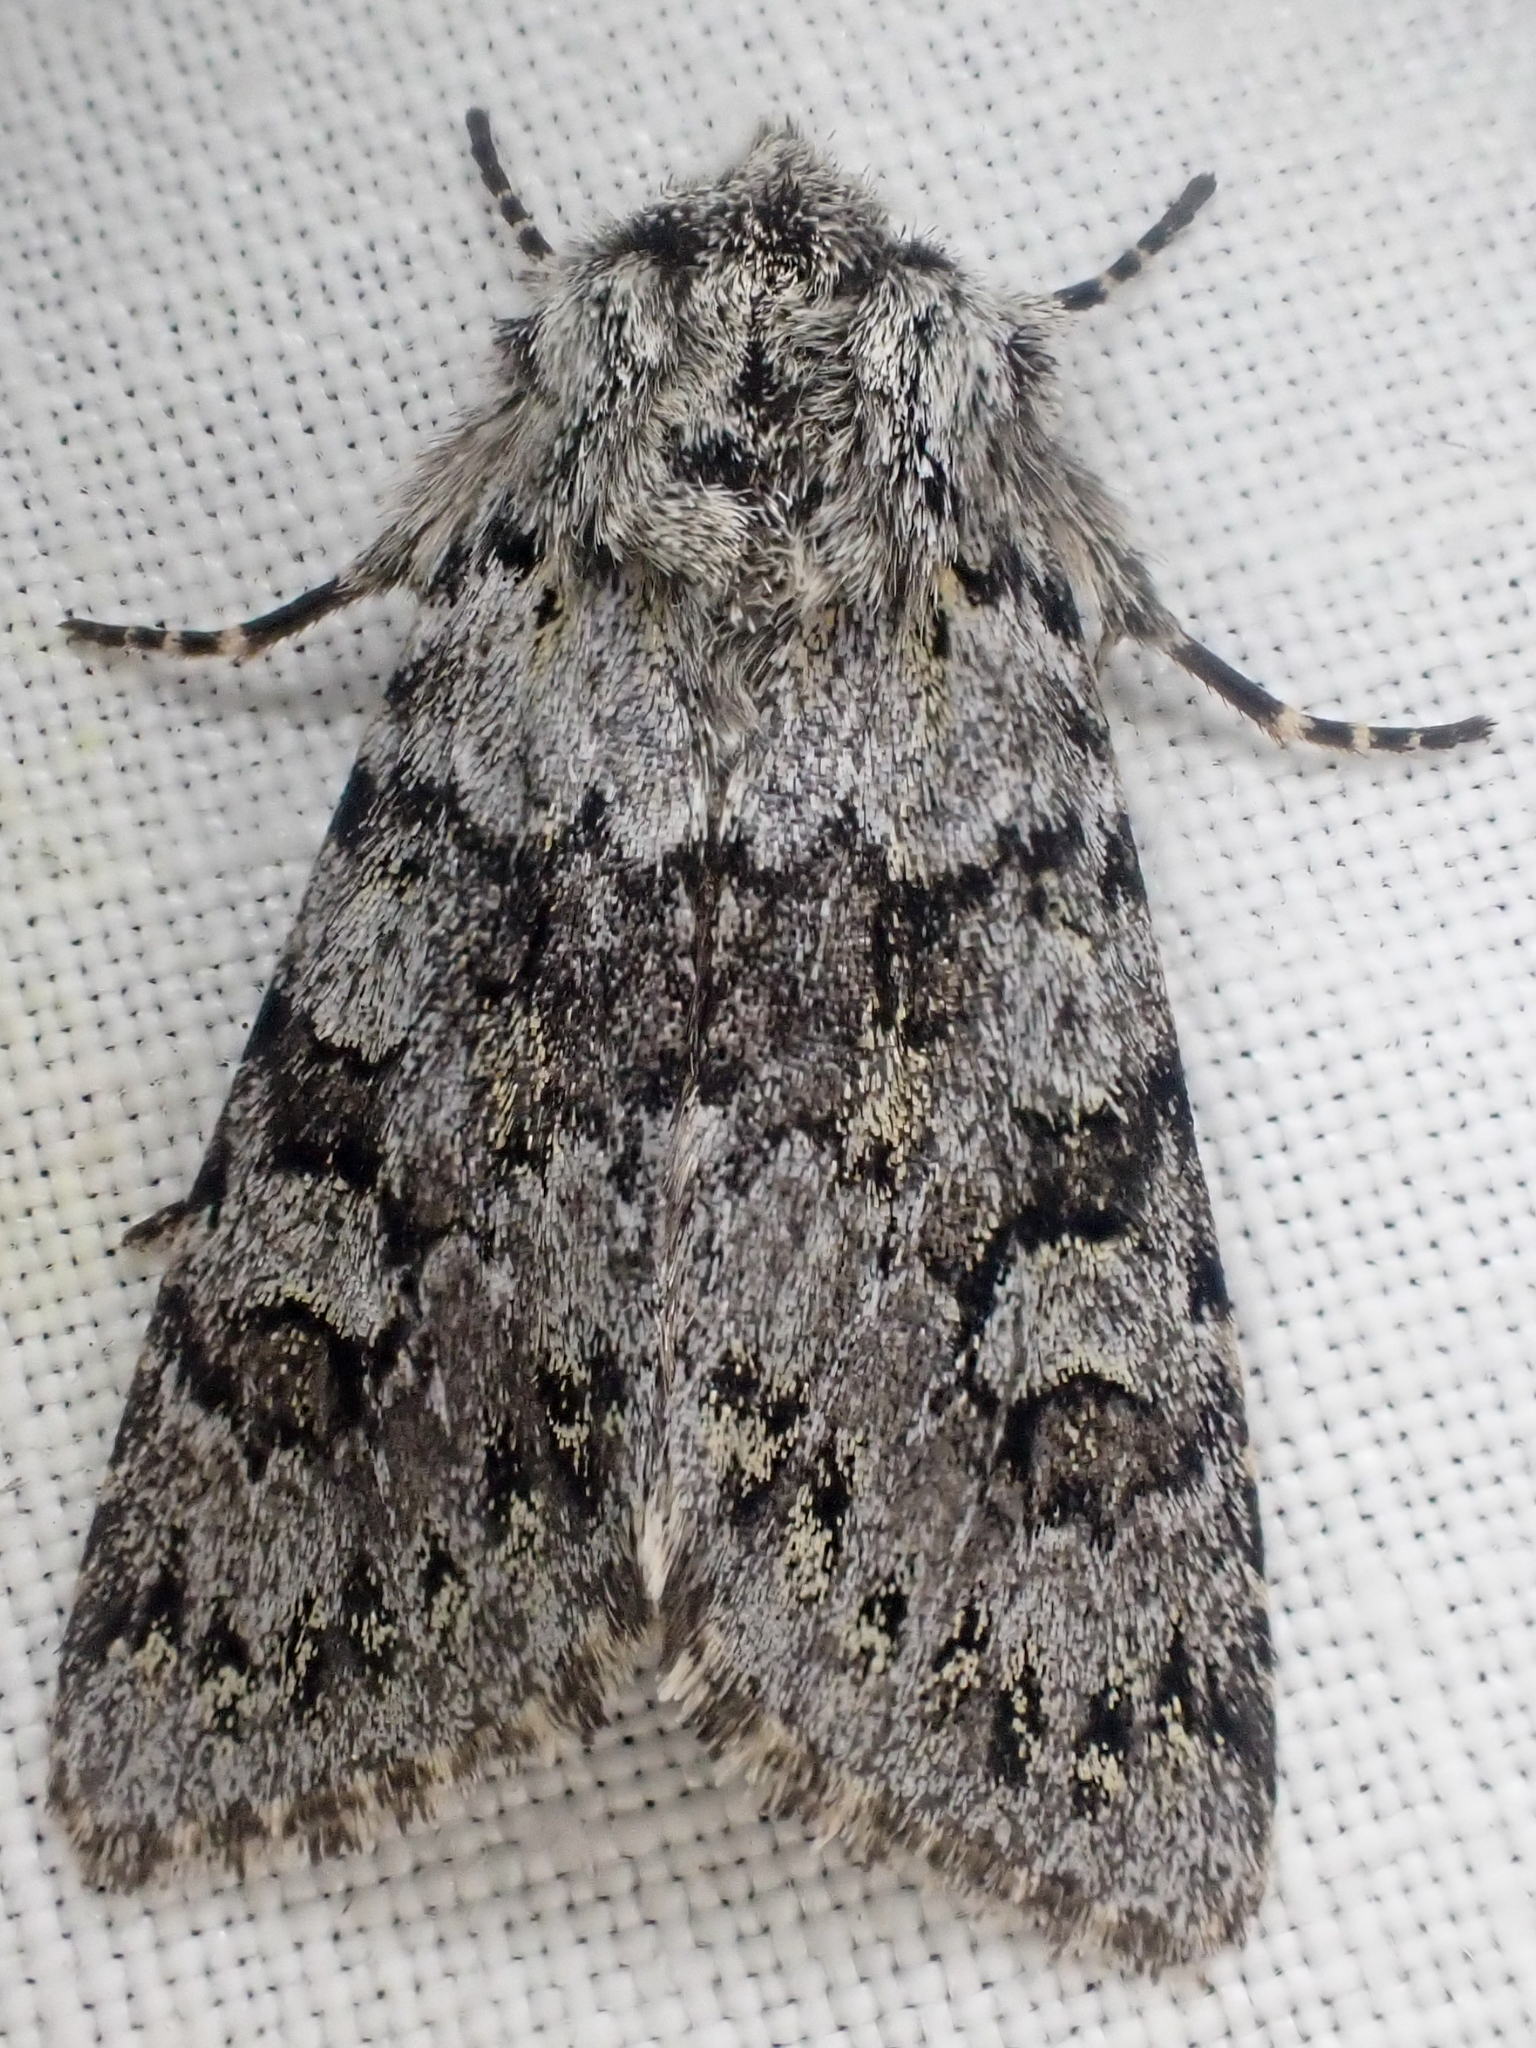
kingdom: Animalia
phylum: Arthropoda
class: Insecta
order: Lepidoptera
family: Noctuidae
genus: Lasionycta
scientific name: Lasionycta mutilata
